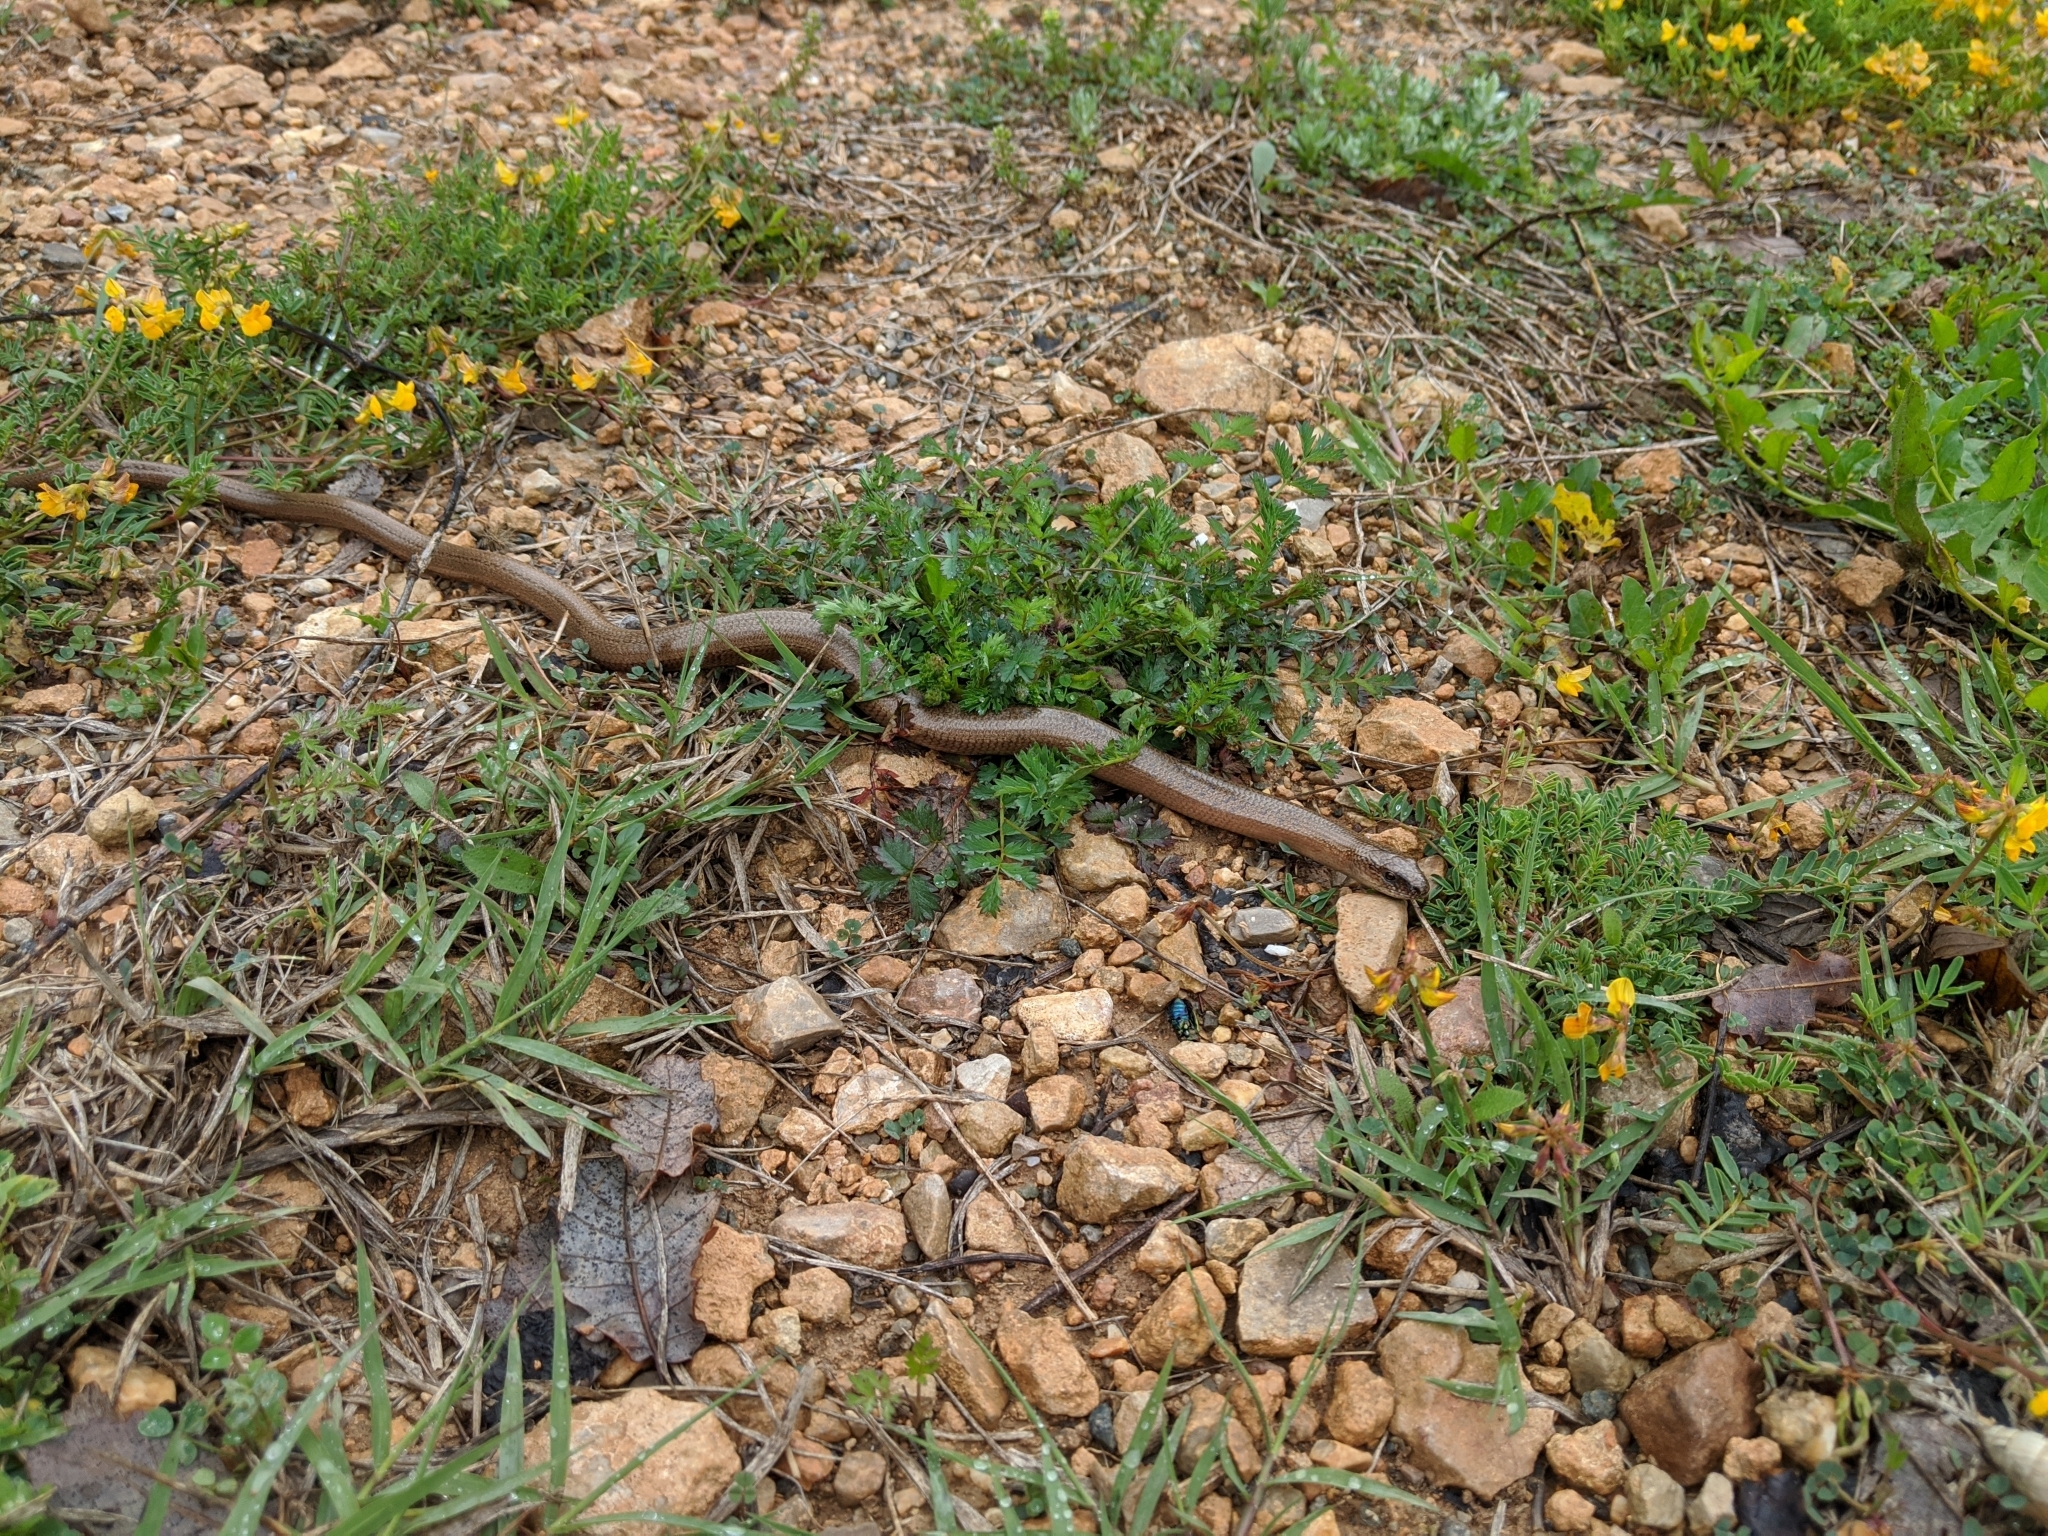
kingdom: Animalia
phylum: Chordata
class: Squamata
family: Anguidae
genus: Anguis
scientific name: Anguis fragilis
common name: Slow worm
